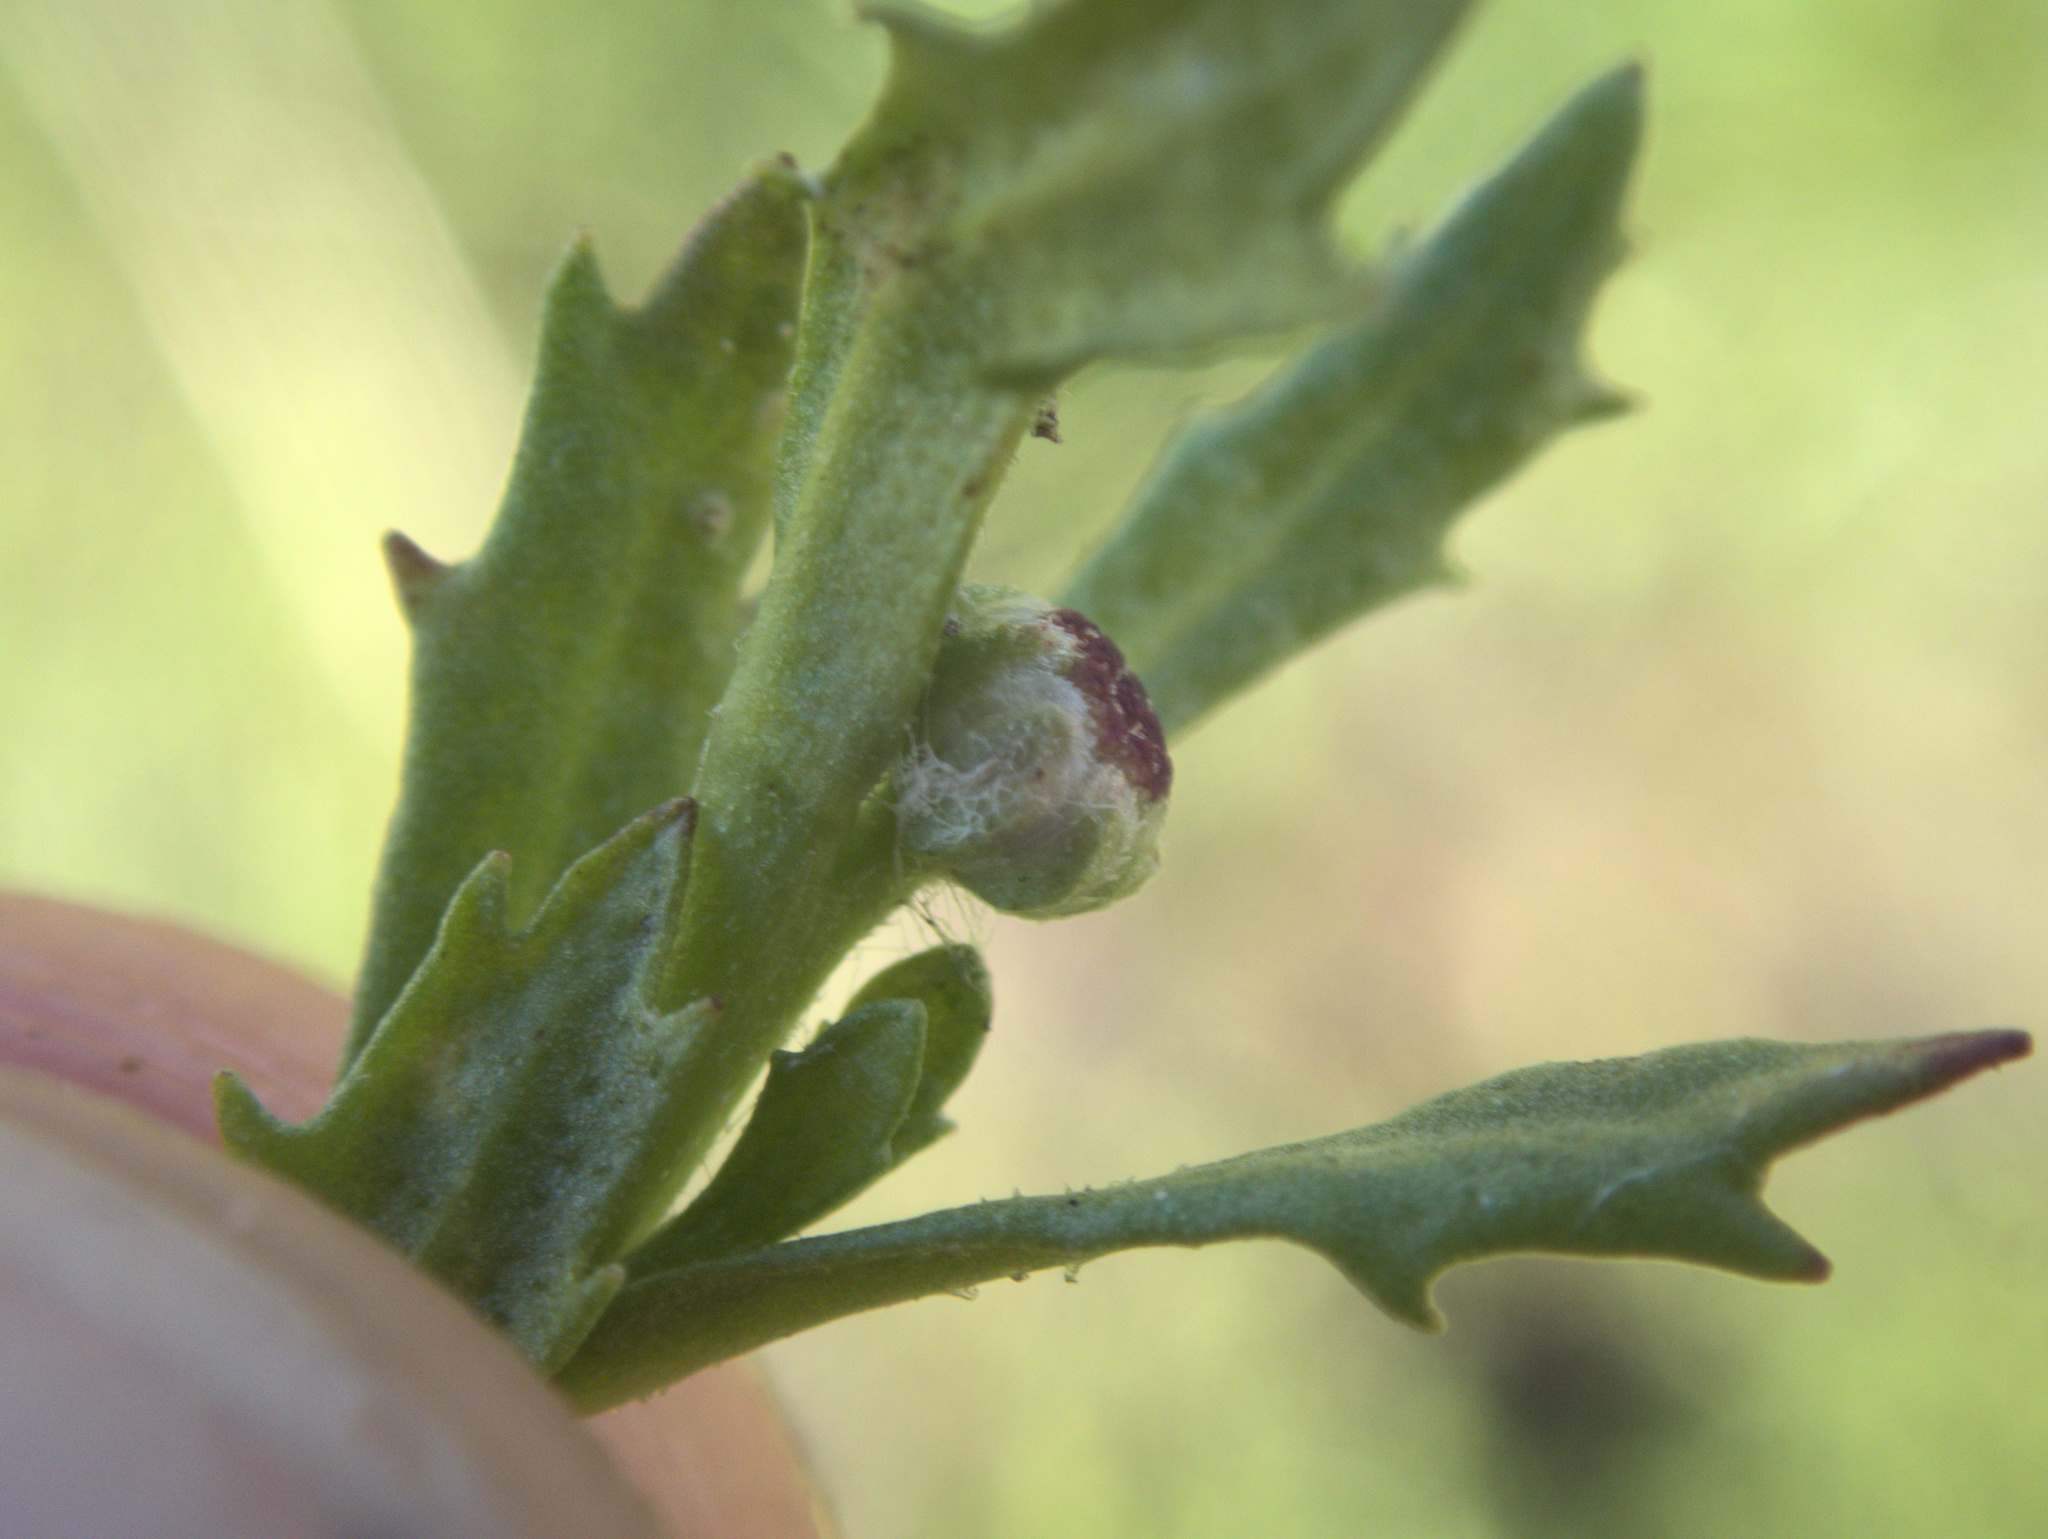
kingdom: Plantae
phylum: Tracheophyta
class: Magnoliopsida
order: Asterales
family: Asteraceae
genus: Centipeda
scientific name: Centipeda aotearoana
